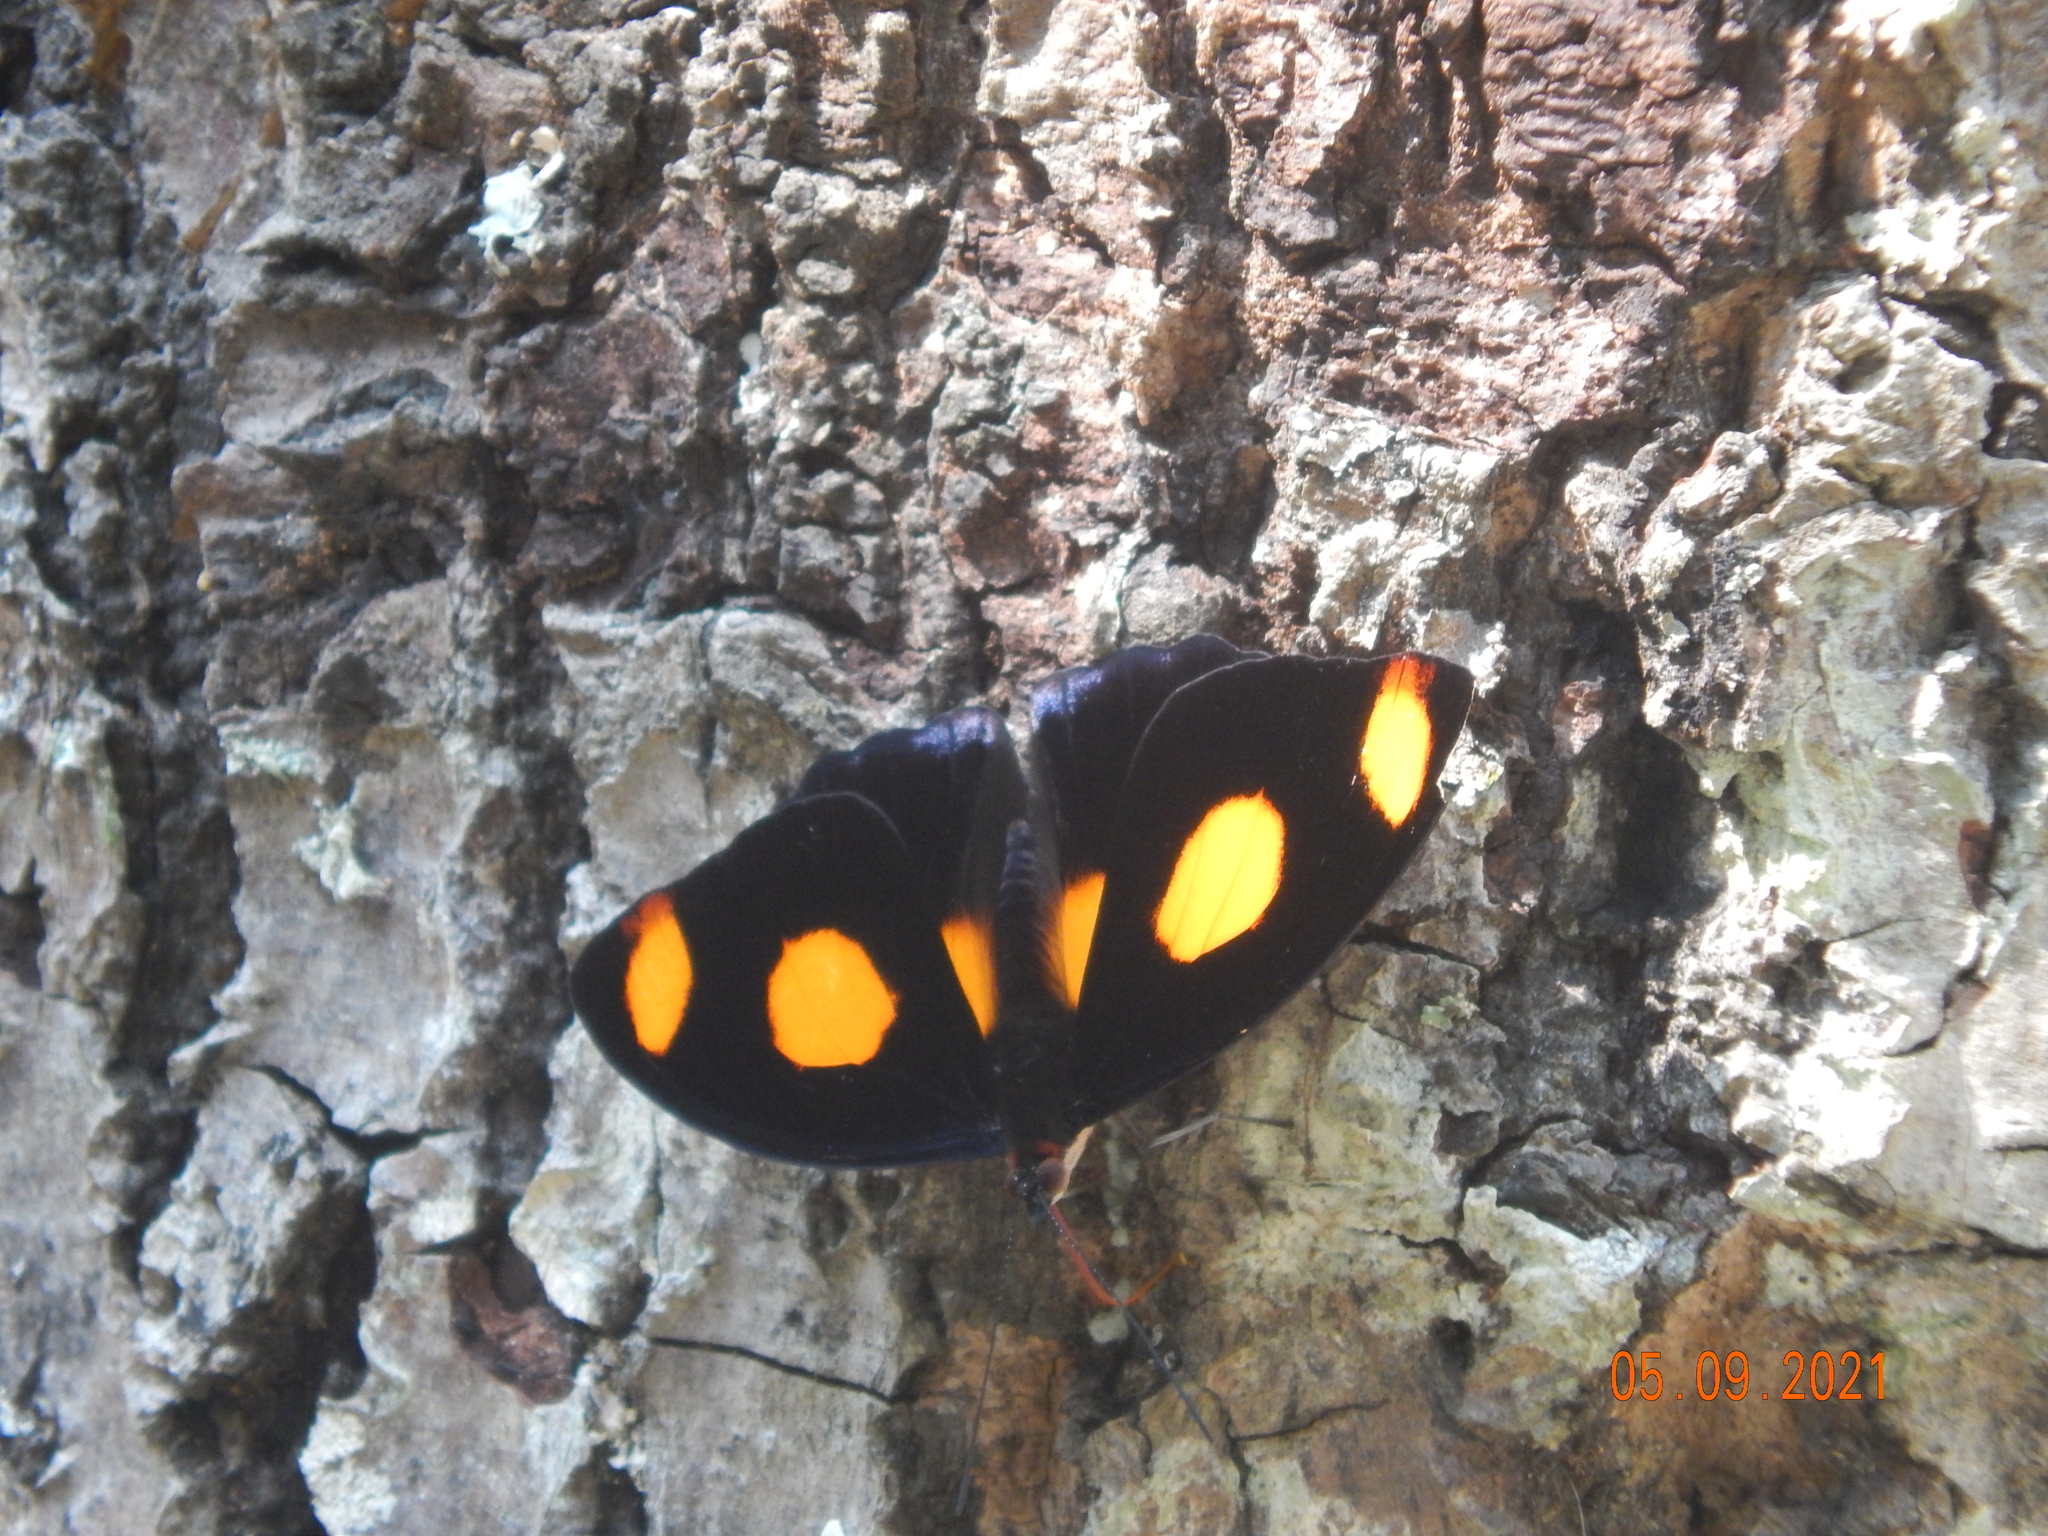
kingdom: Animalia
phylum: Arthropoda
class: Insecta
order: Lepidoptera
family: Nymphalidae
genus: Catonephele
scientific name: Catonephele numilia
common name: Blue-frosted banner
